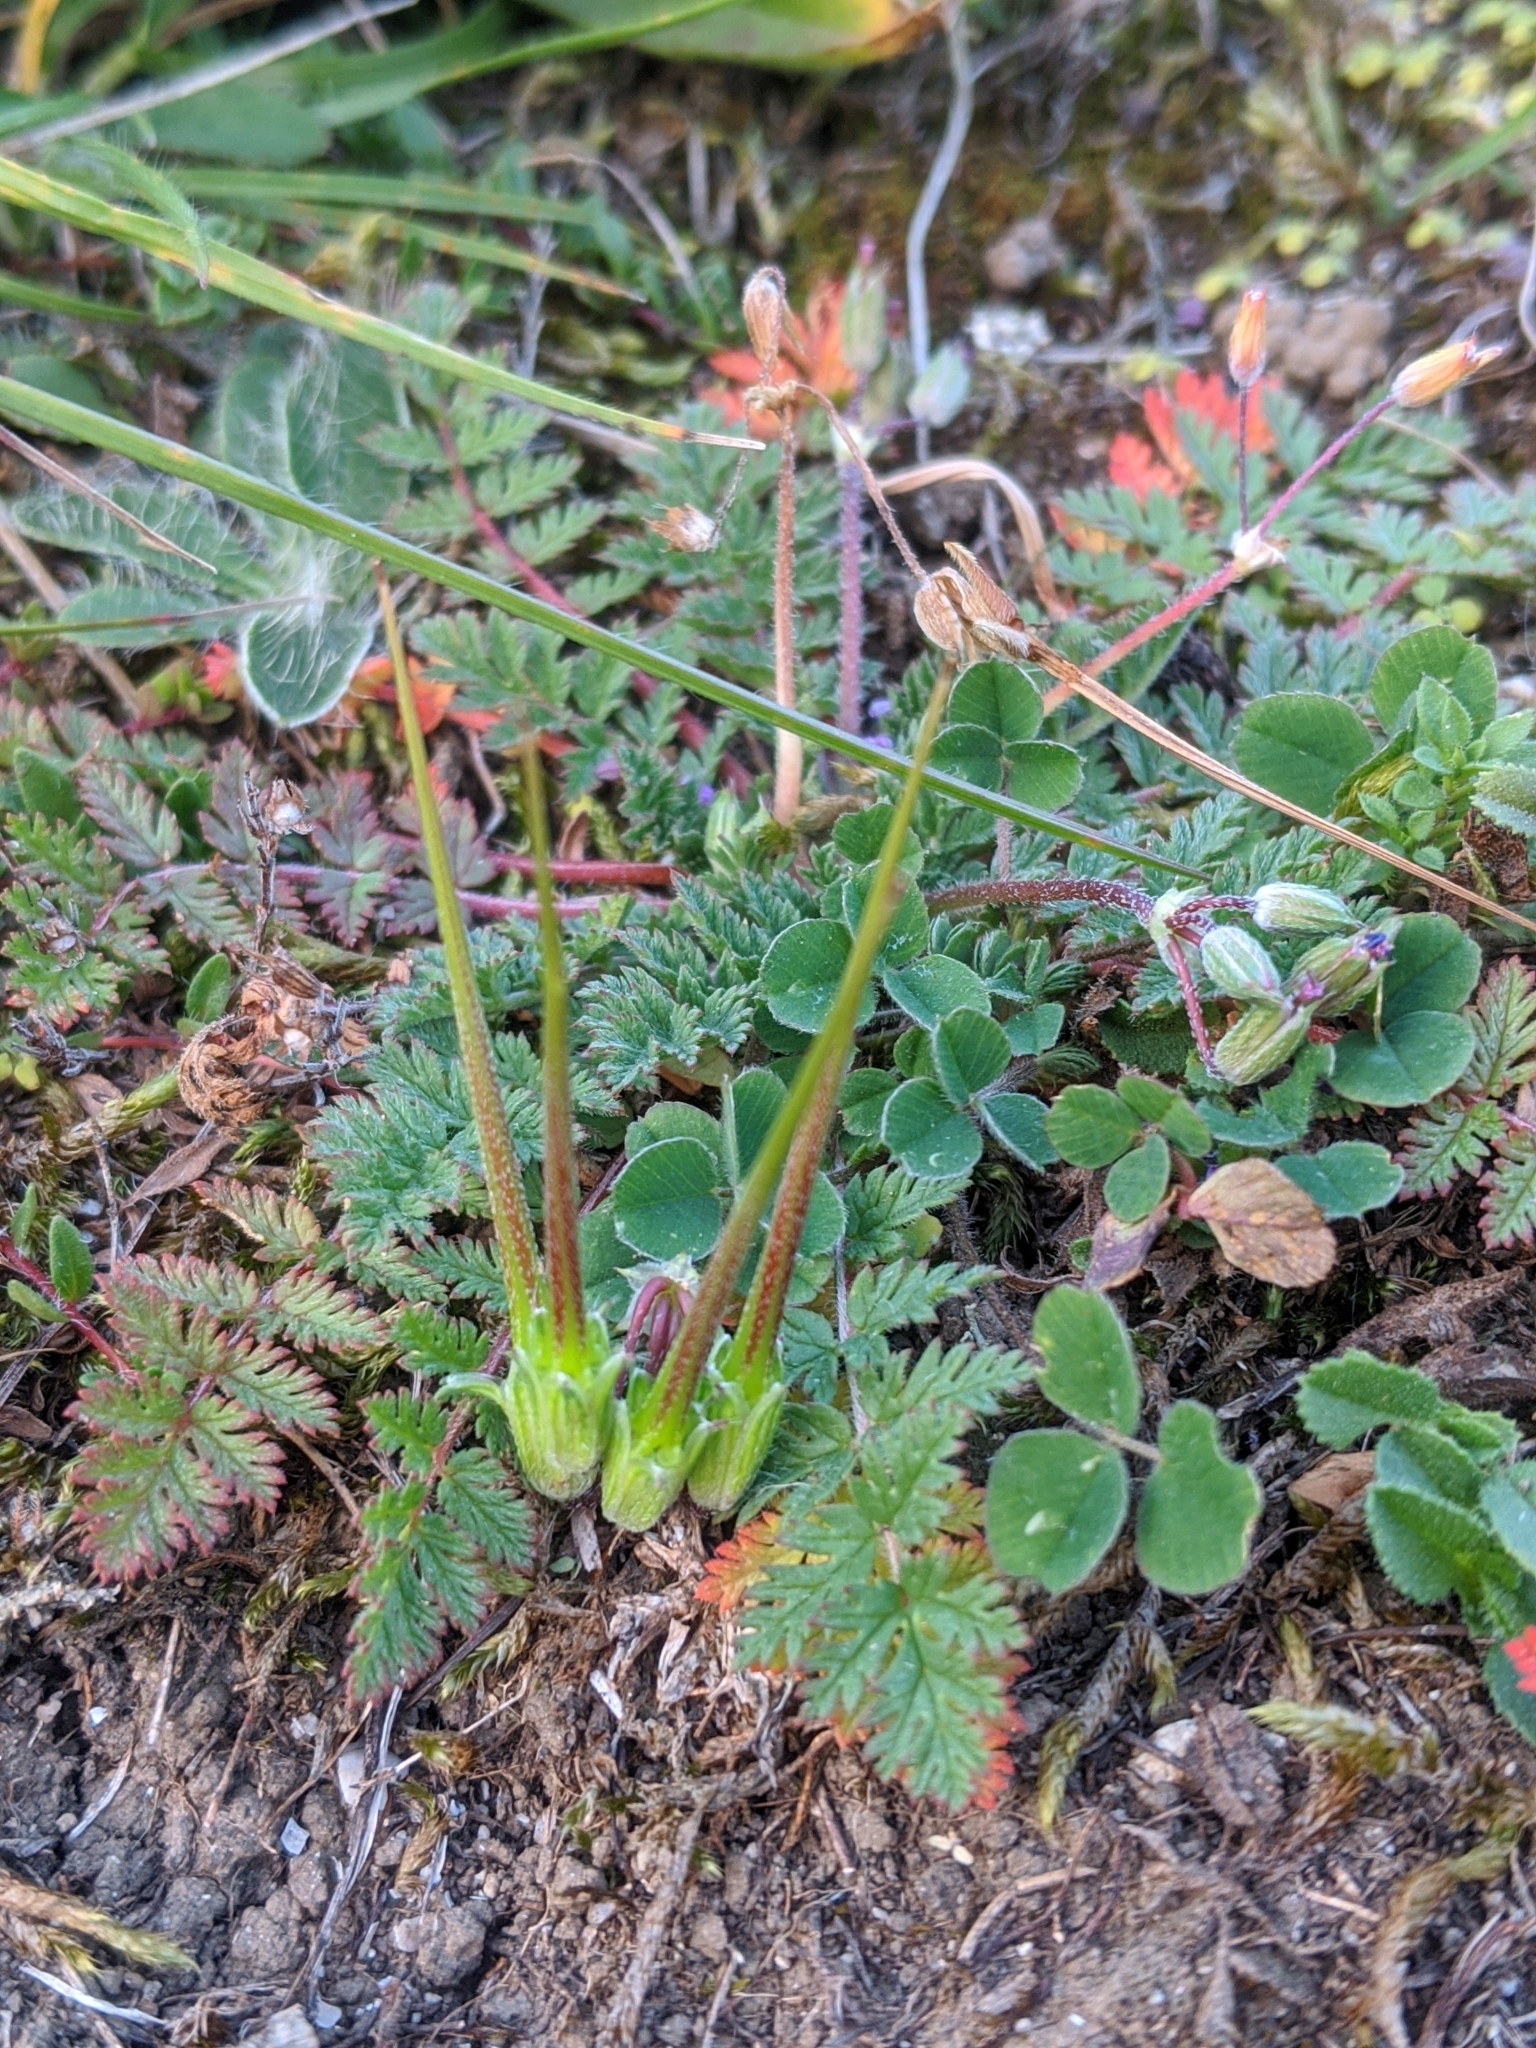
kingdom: Plantae
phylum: Tracheophyta
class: Magnoliopsida
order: Geraniales
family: Geraniaceae
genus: Erodium
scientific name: Erodium cicutarium
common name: Common stork's-bill
